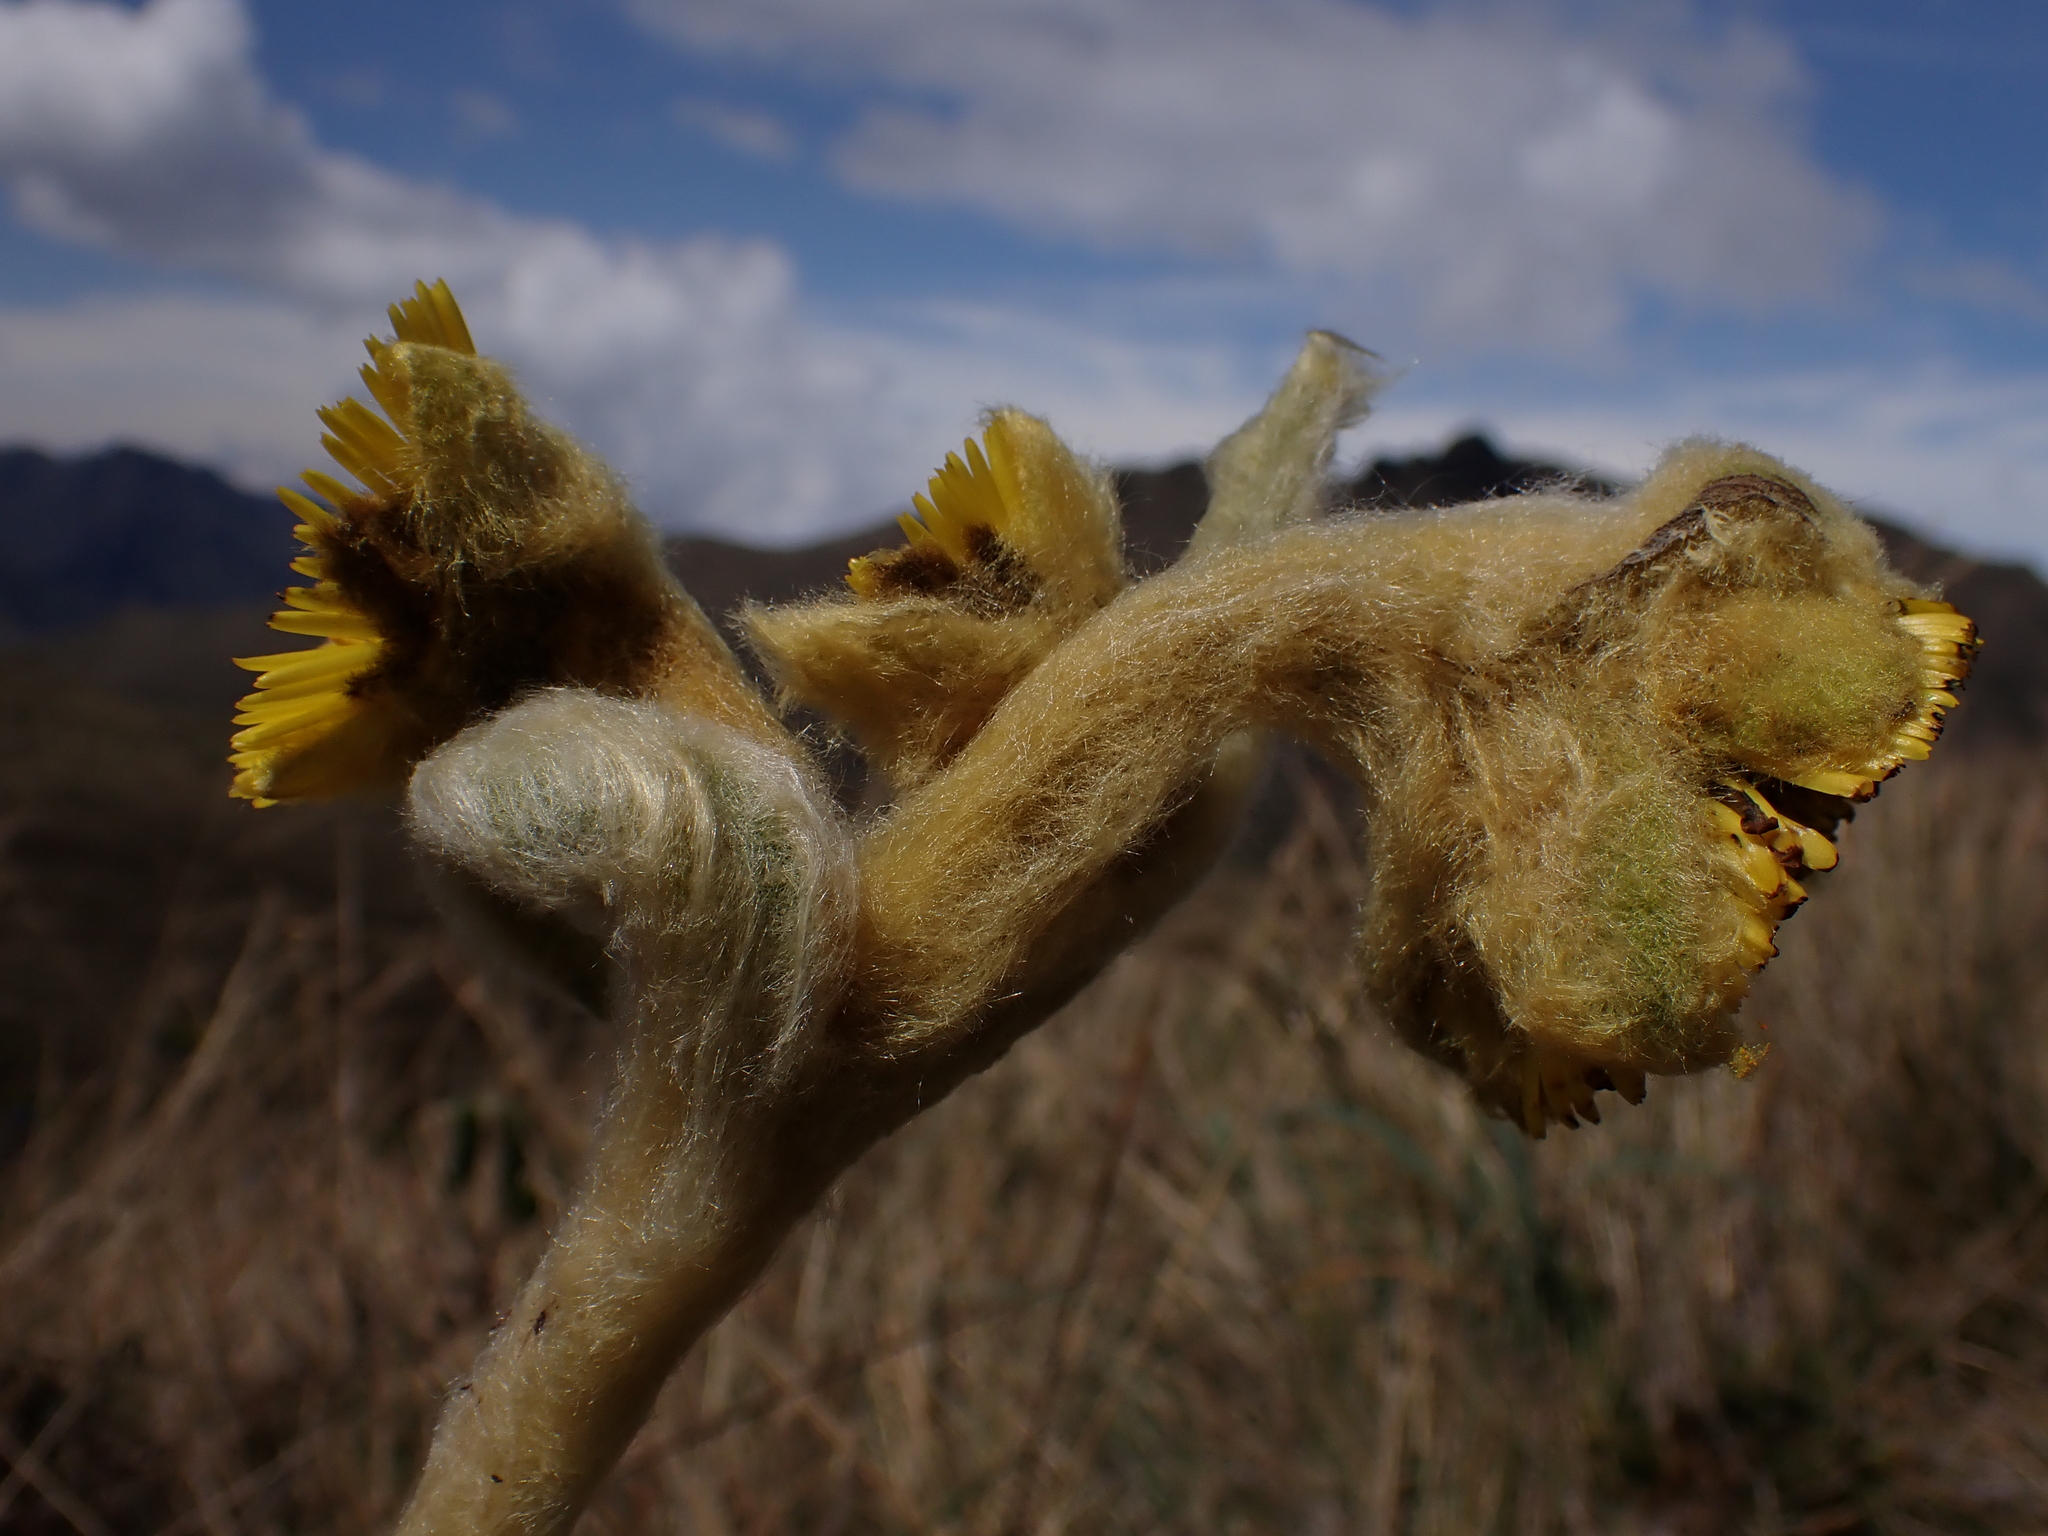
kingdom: Plantae
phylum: Tracheophyta
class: Magnoliopsida
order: Asterales
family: Asteraceae
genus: Espeletia
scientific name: Espeletia pycnophylla
